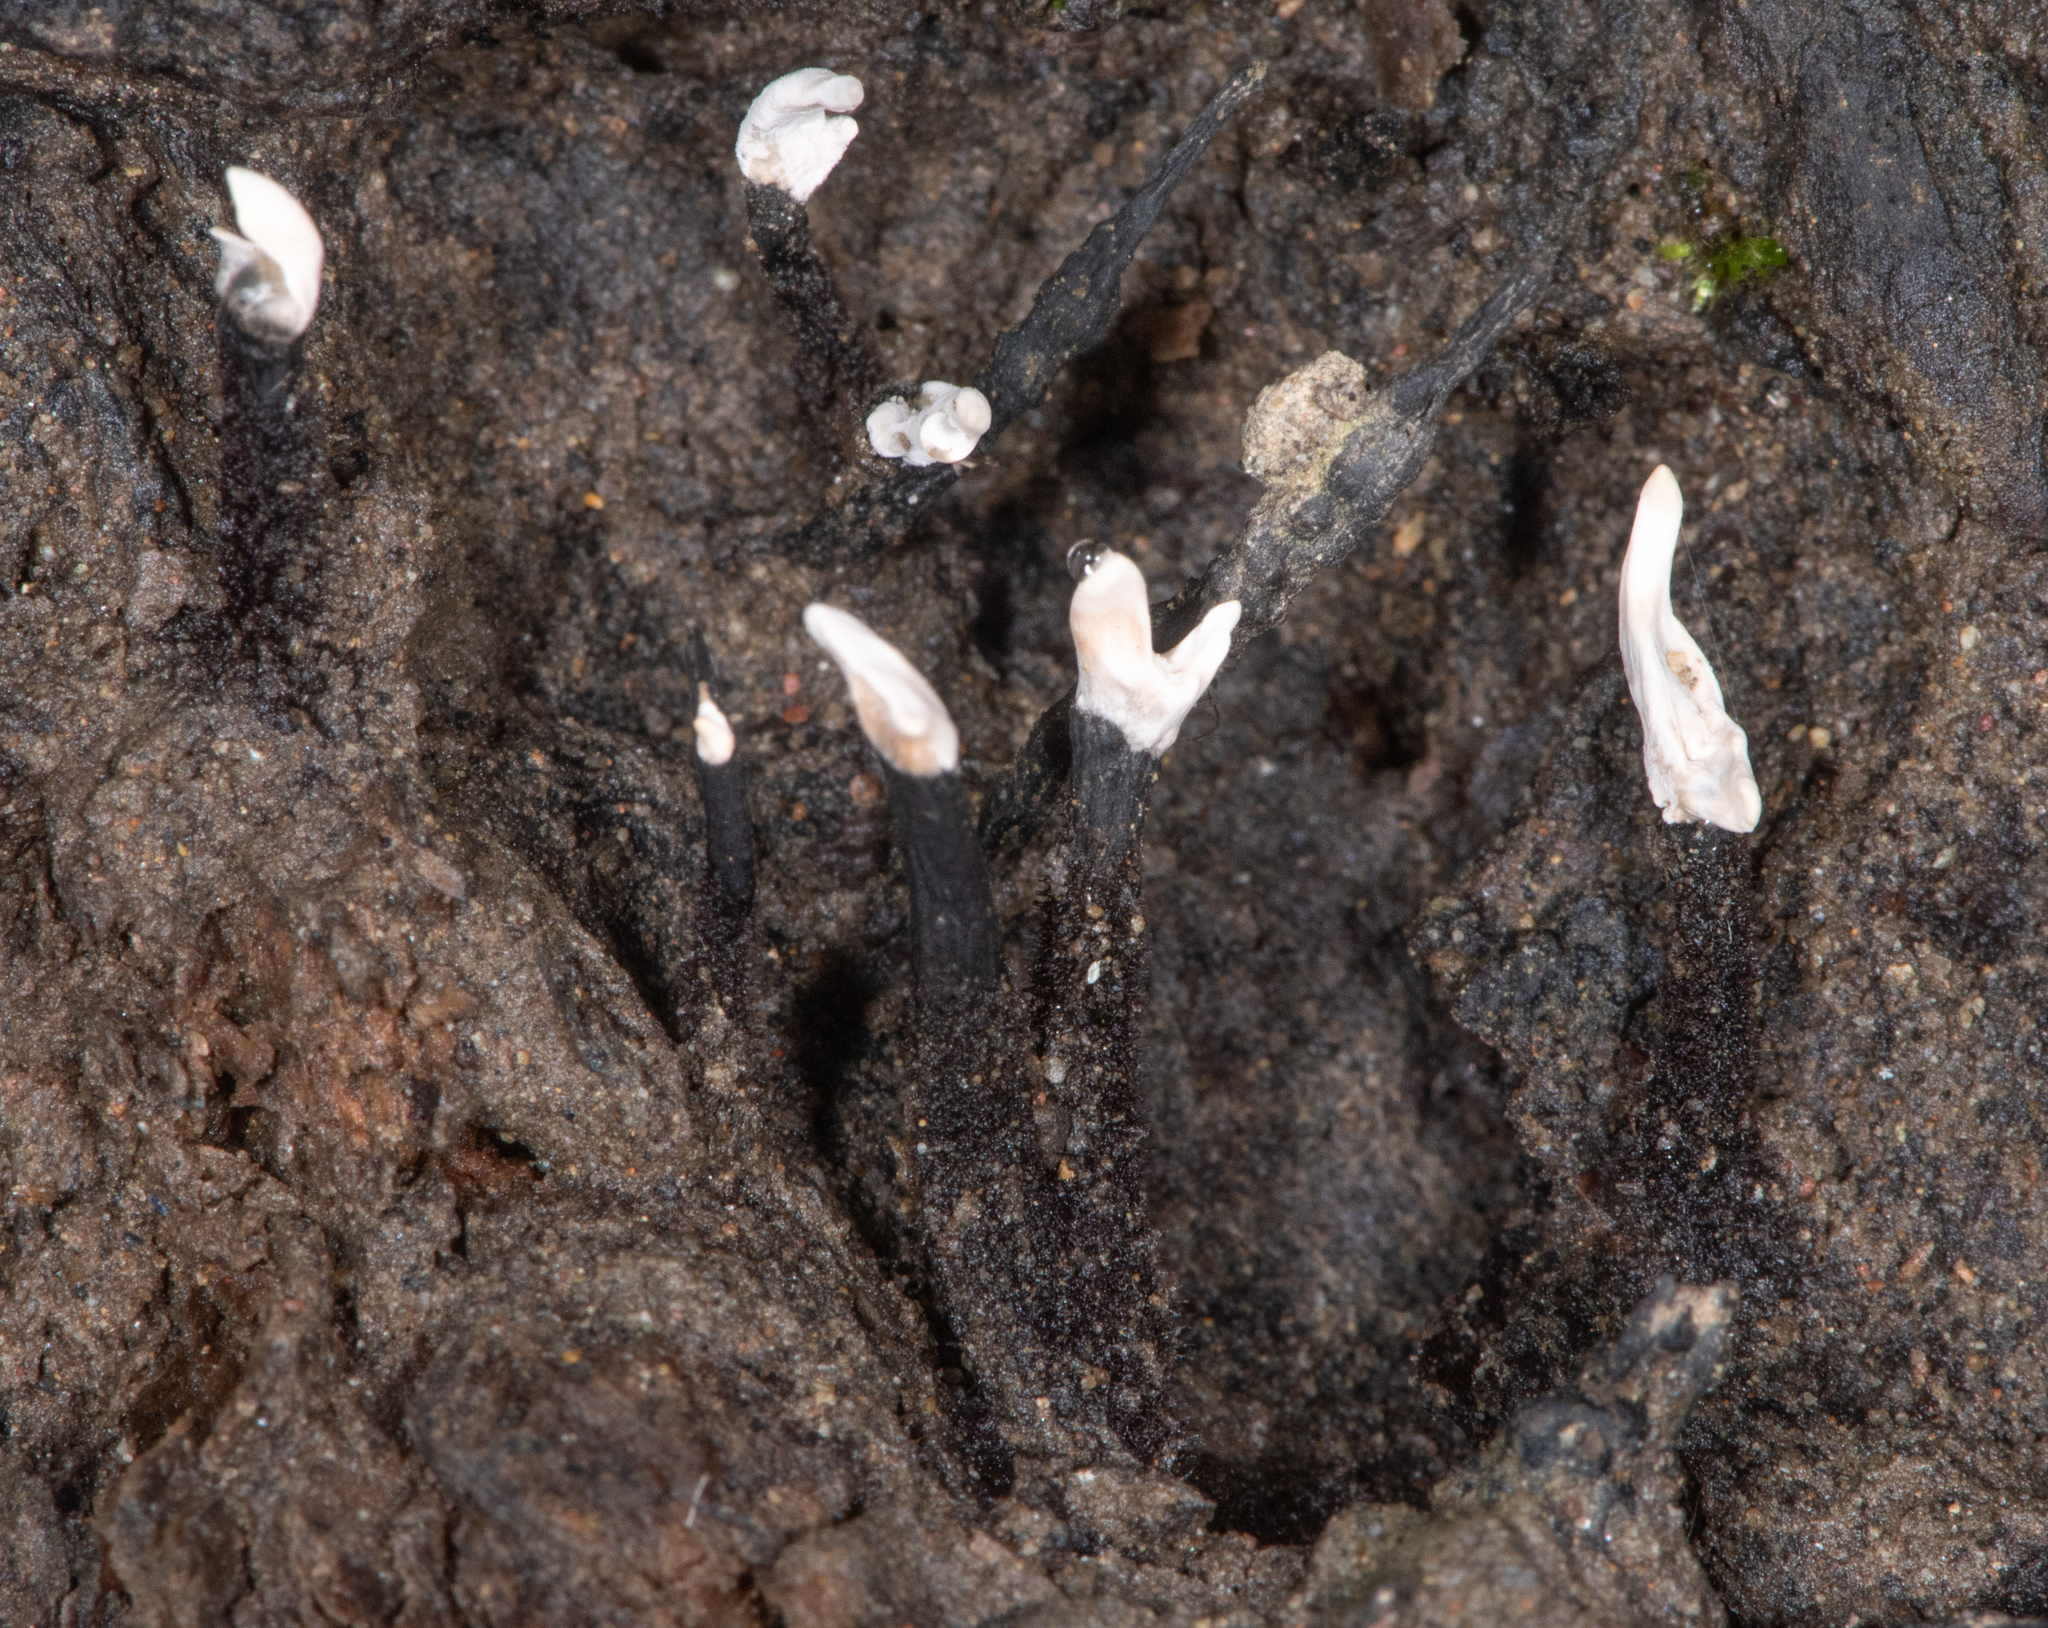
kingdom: Fungi
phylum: Ascomycota
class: Sordariomycetes
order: Xylariales
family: Xylariaceae
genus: Xylaria
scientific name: Xylaria hypoxylon
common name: Candle-snuff fungus
